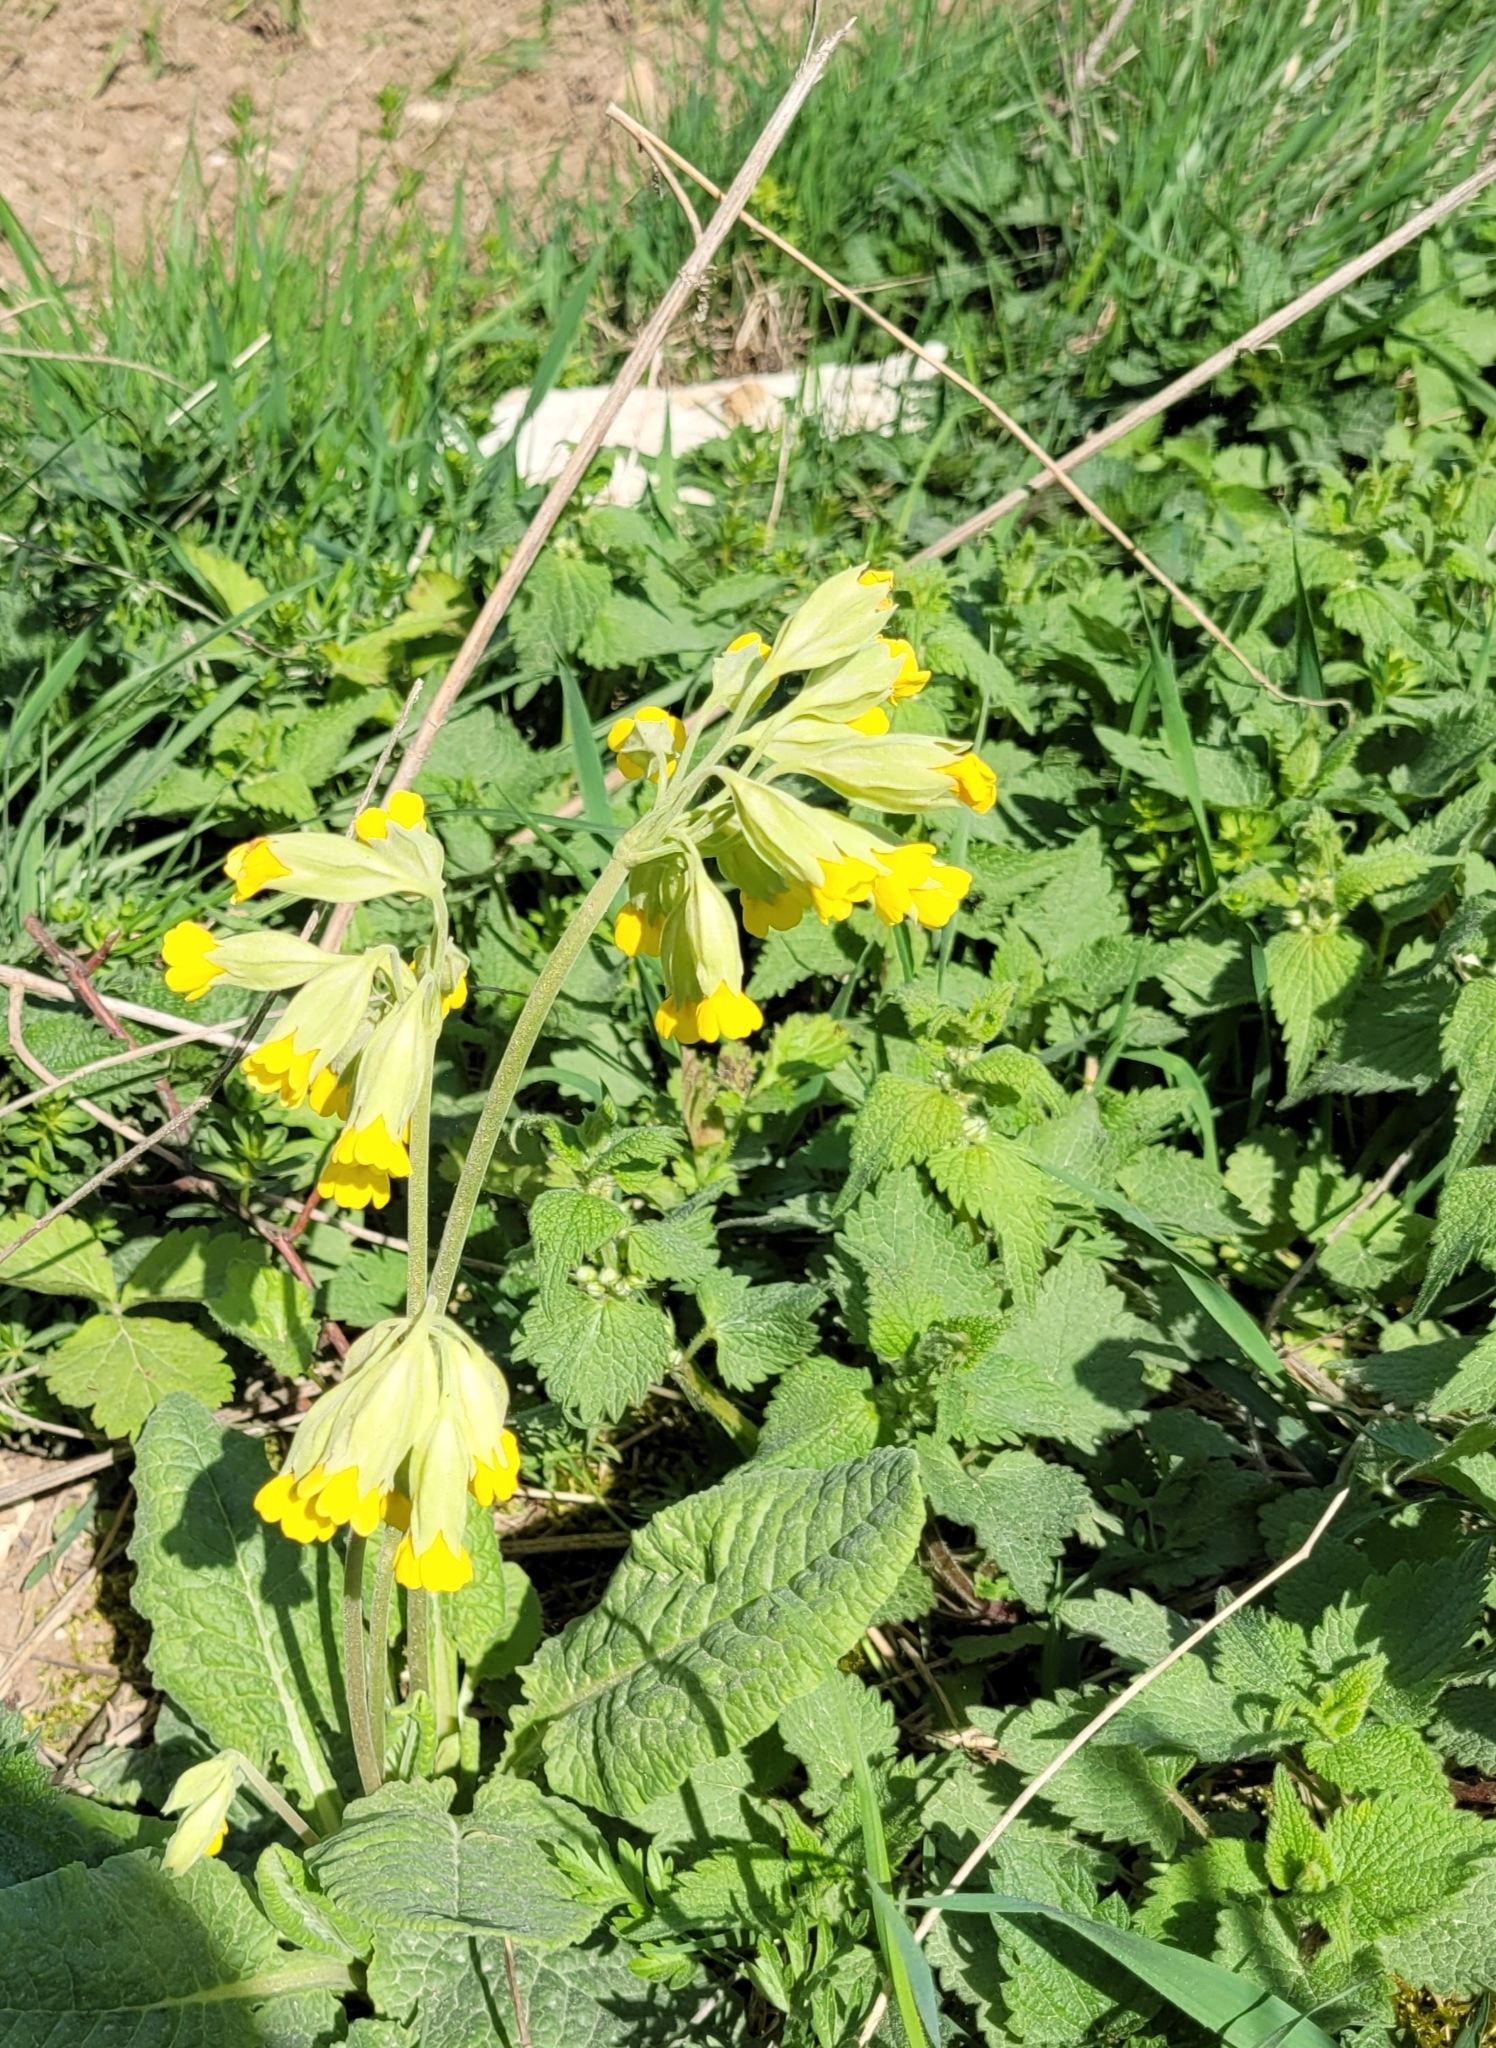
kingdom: Plantae
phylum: Tracheophyta
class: Magnoliopsida
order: Ericales
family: Primulaceae
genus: Primula
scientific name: Primula veris
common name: Cowslip
